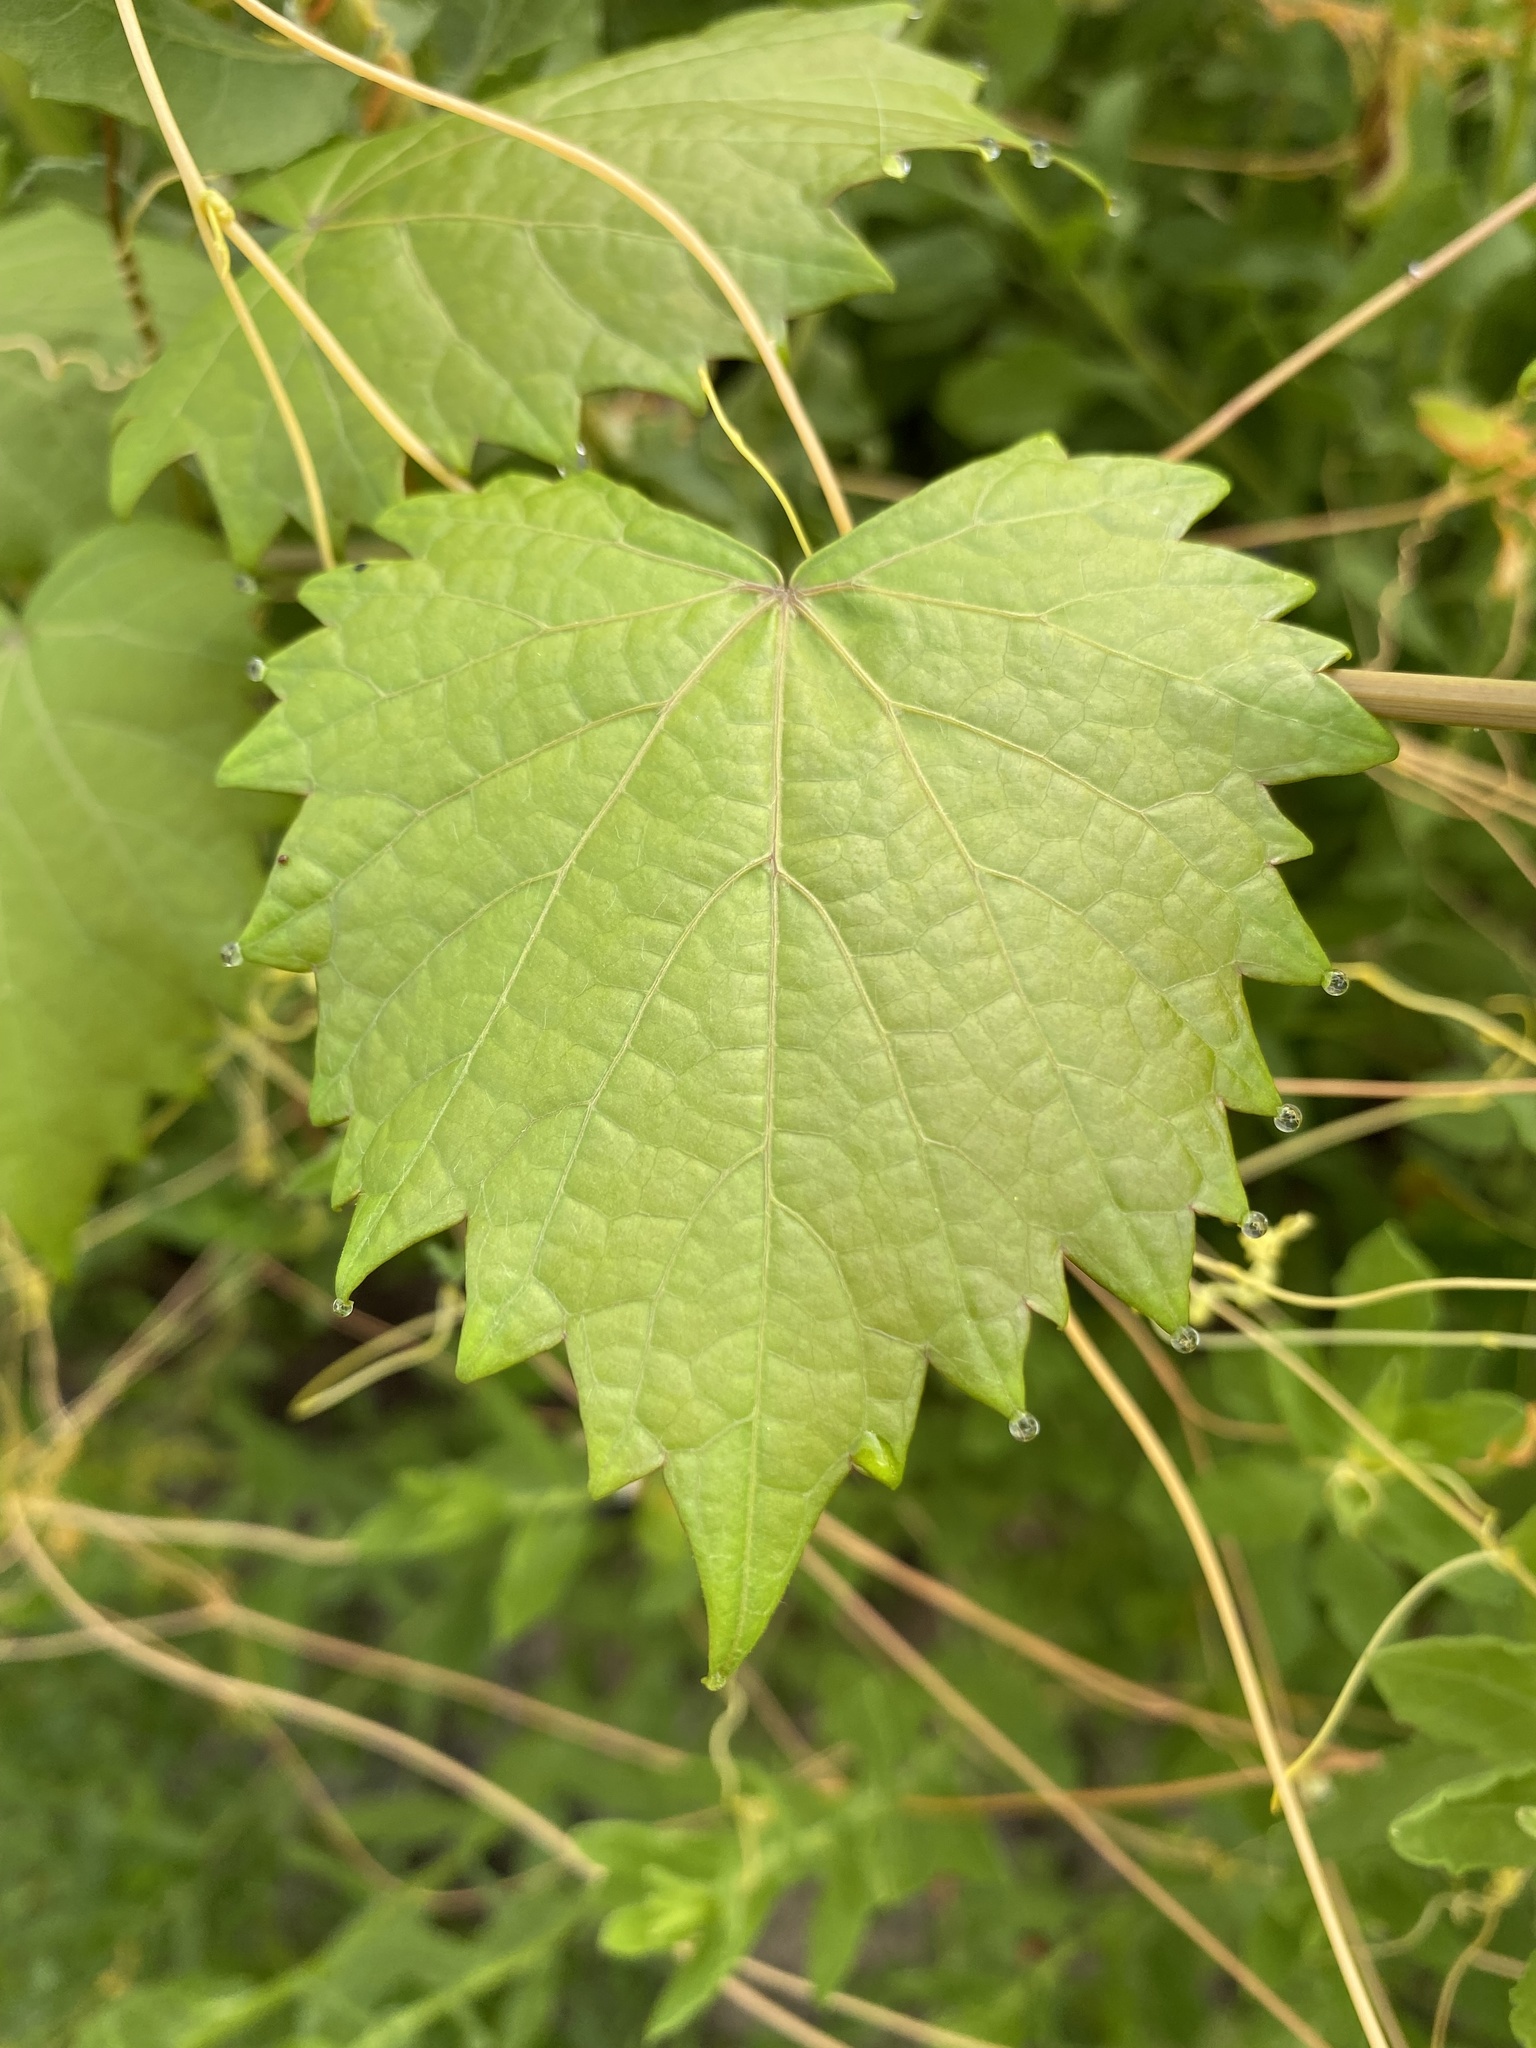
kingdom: Plantae
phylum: Tracheophyta
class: Magnoliopsida
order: Vitales
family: Vitaceae
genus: Vitis
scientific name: Vitis rotundifolia
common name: Muscadine grape
